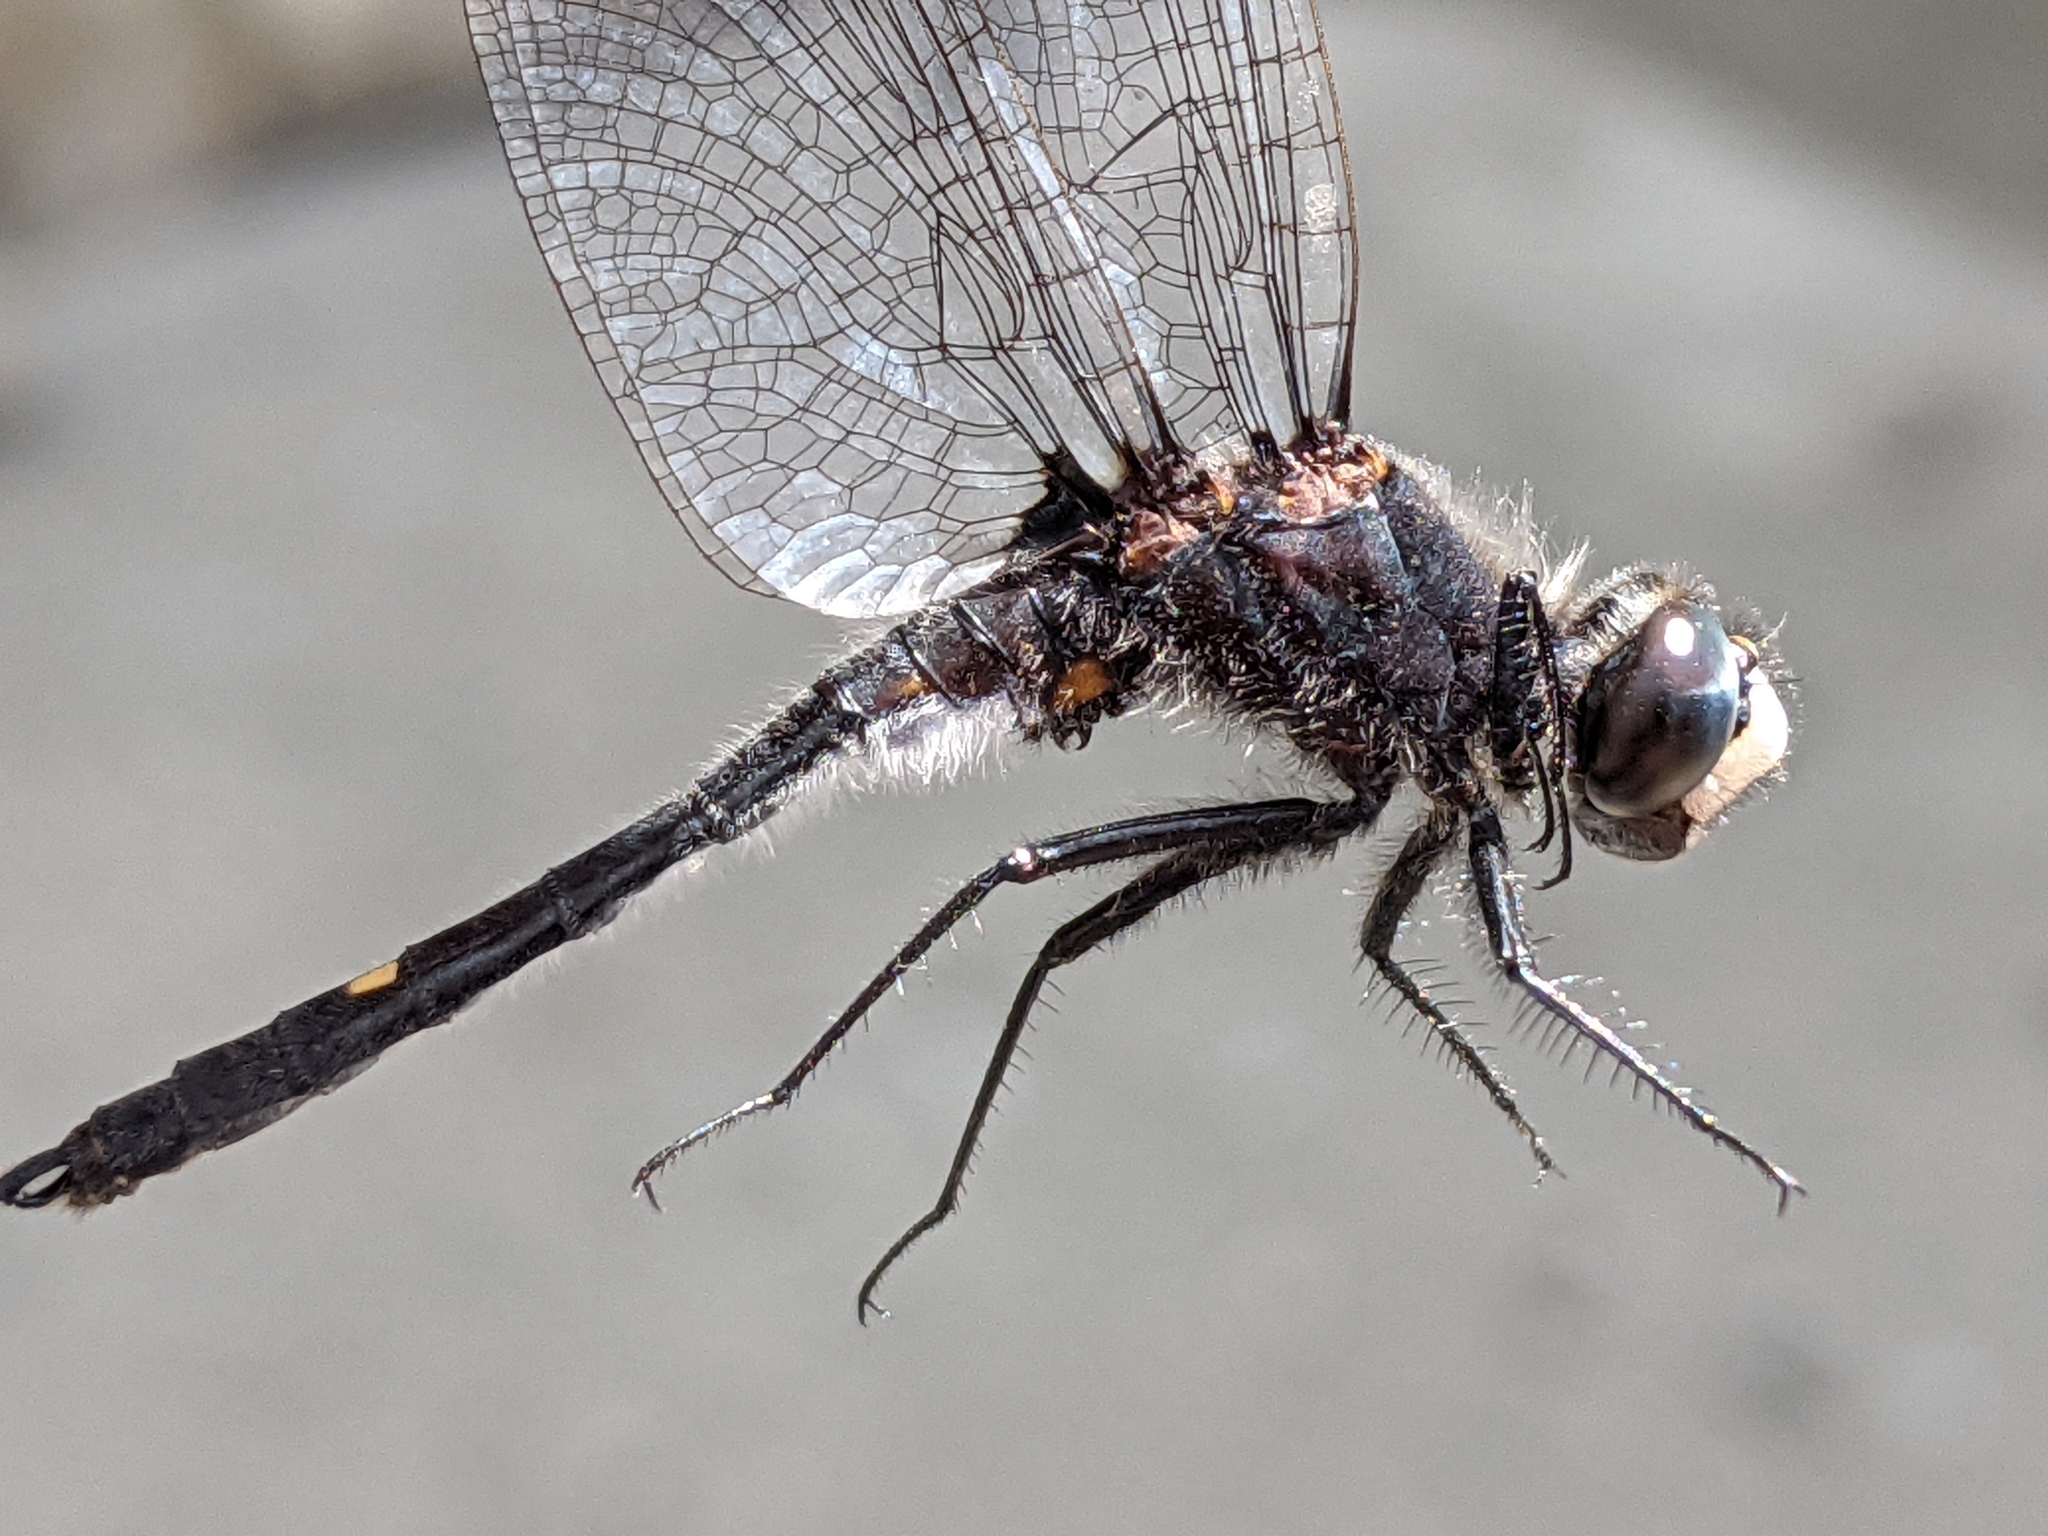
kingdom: Animalia
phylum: Arthropoda
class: Insecta
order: Odonata
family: Libellulidae
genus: Leucorrhinia
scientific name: Leucorrhinia intacta
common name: Dot-tailed whiteface
